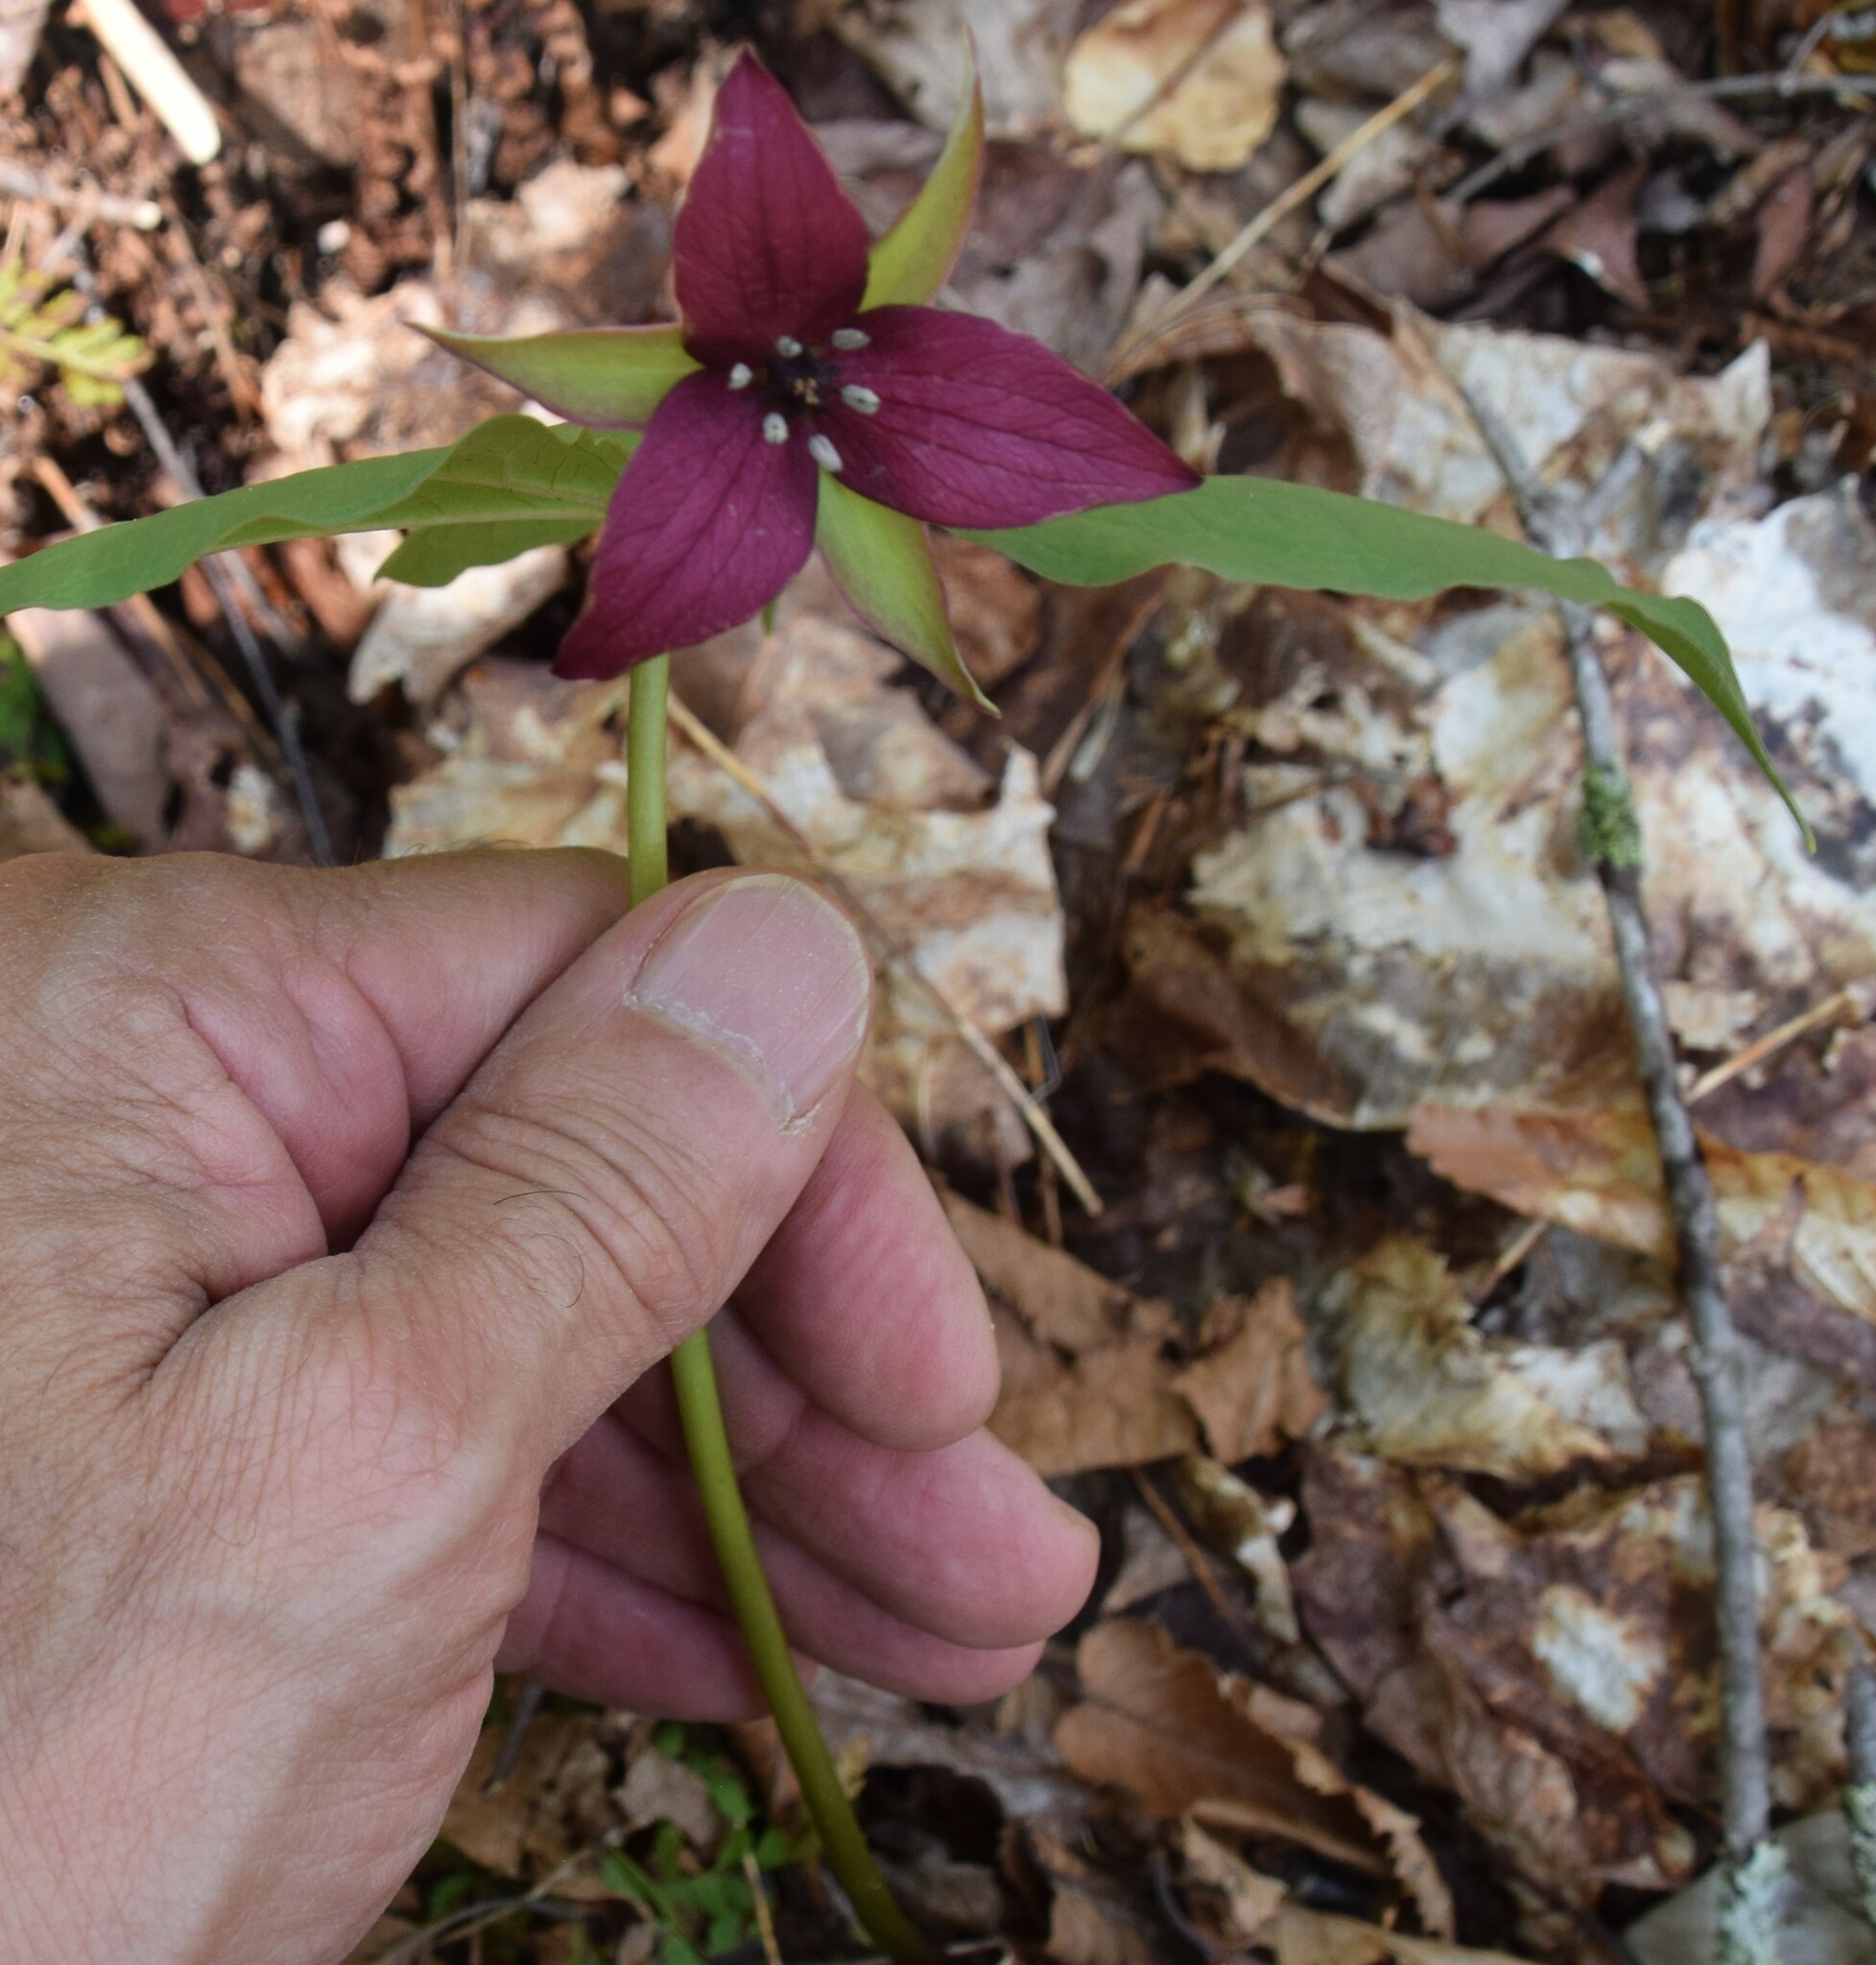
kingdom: Plantae
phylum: Tracheophyta
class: Liliopsida
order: Liliales
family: Melanthiaceae
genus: Trillium
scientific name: Trillium erectum
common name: Purple trillium
